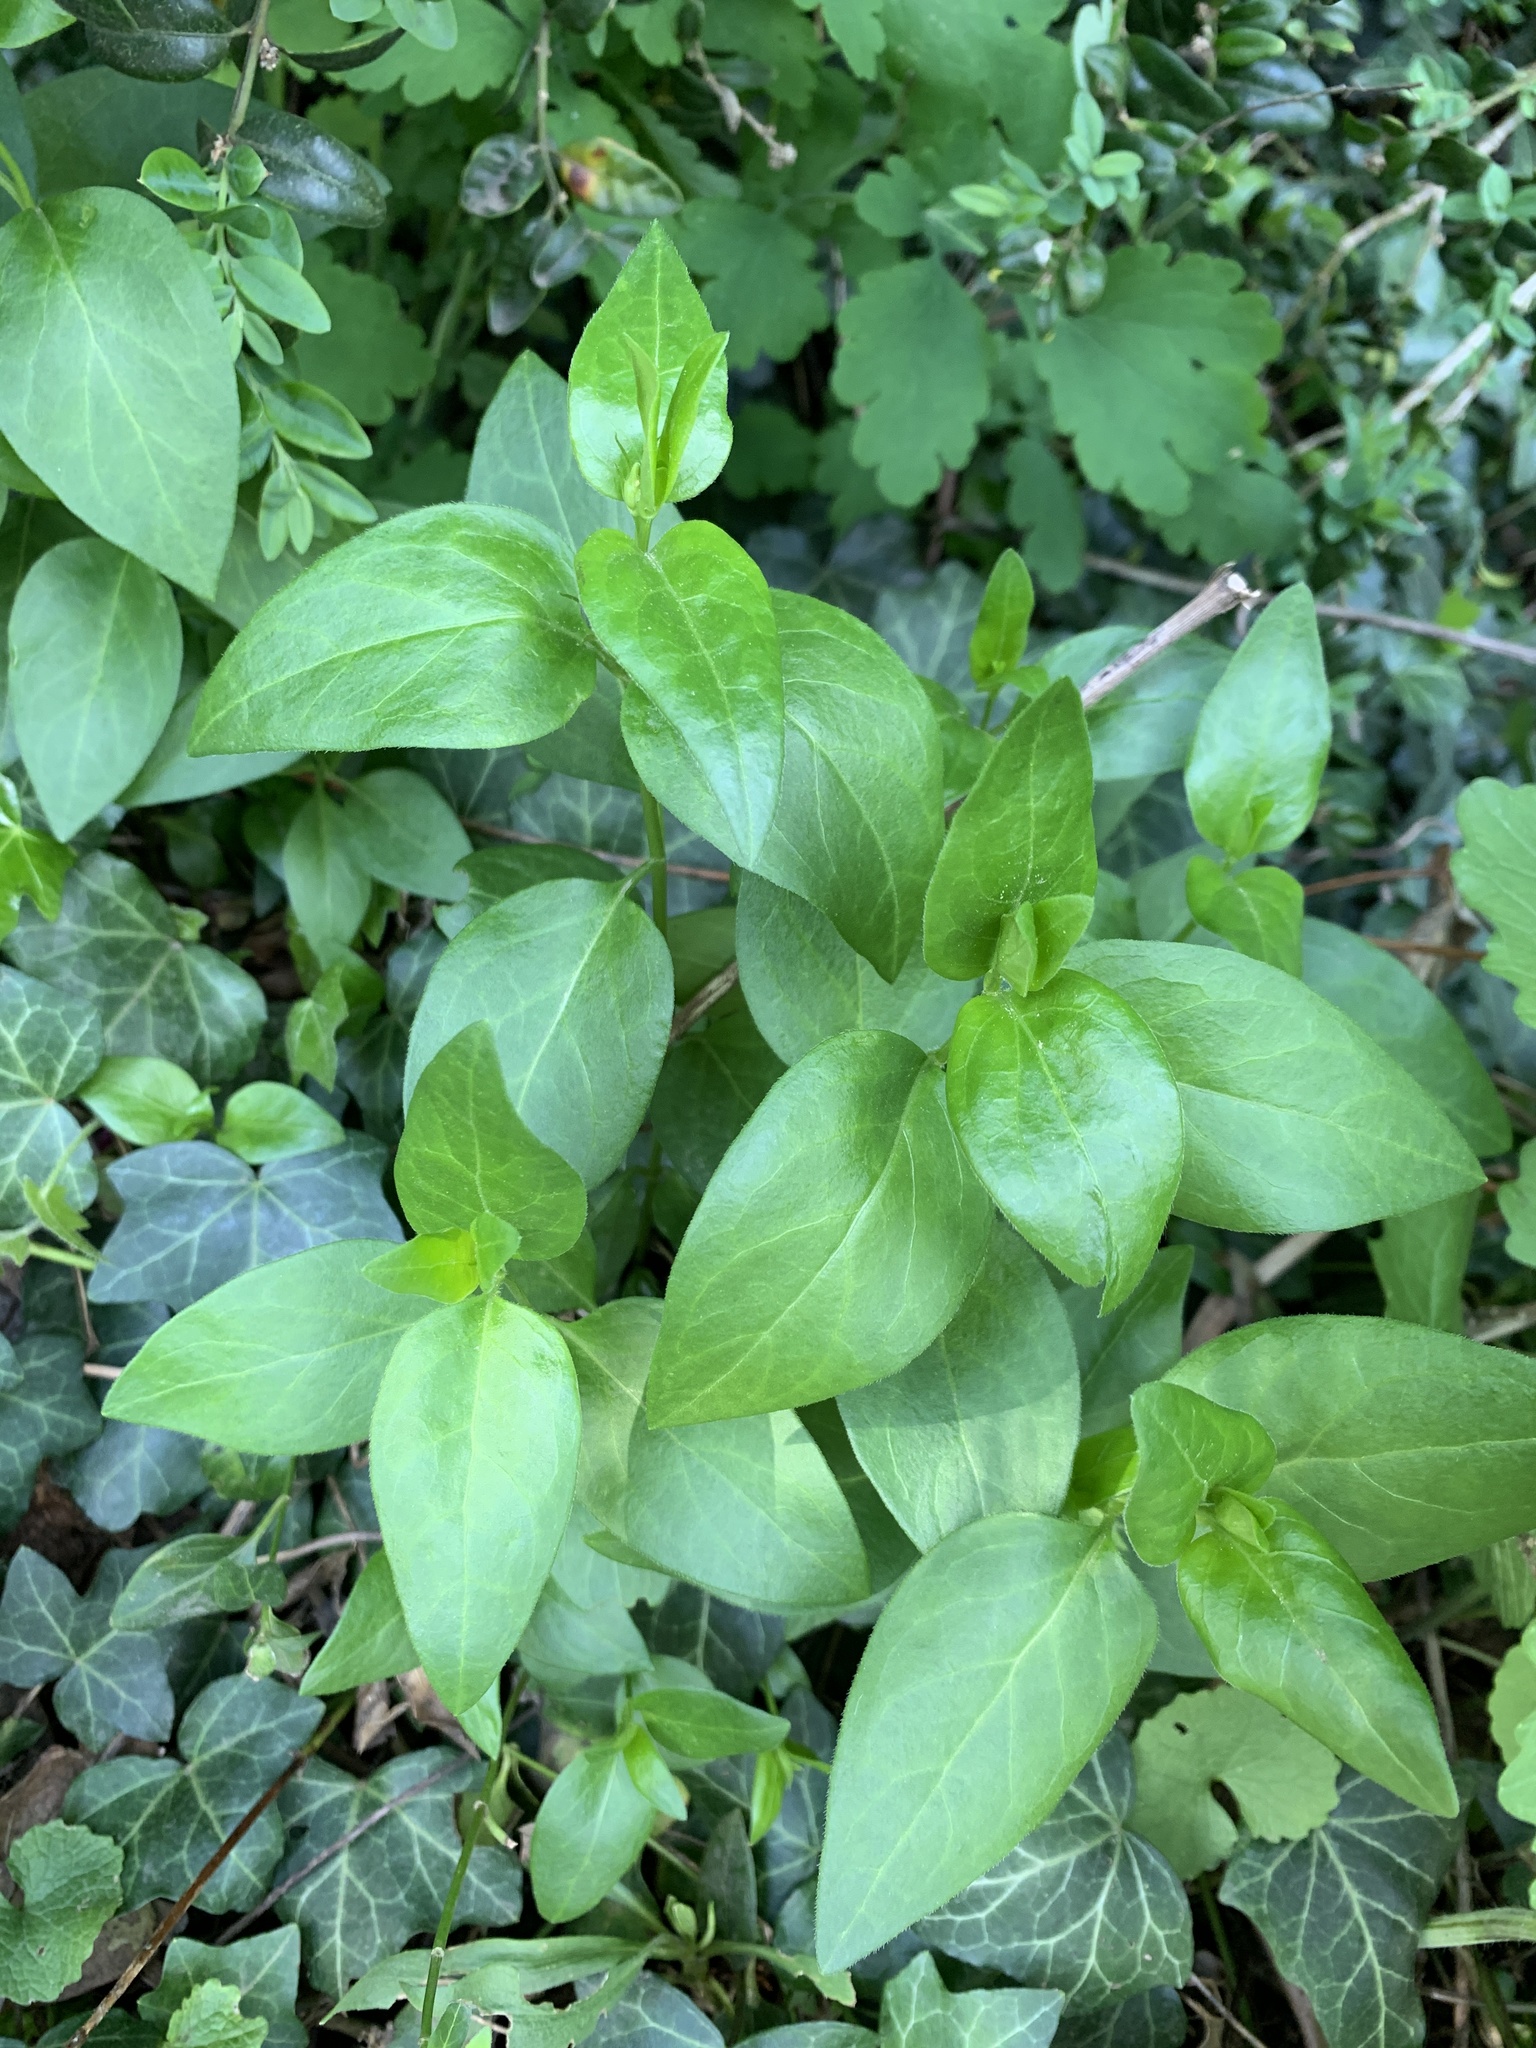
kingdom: Plantae
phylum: Tracheophyta
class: Magnoliopsida
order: Gentianales
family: Apocynaceae
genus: Vinca
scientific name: Vinca major
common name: Greater periwinkle
